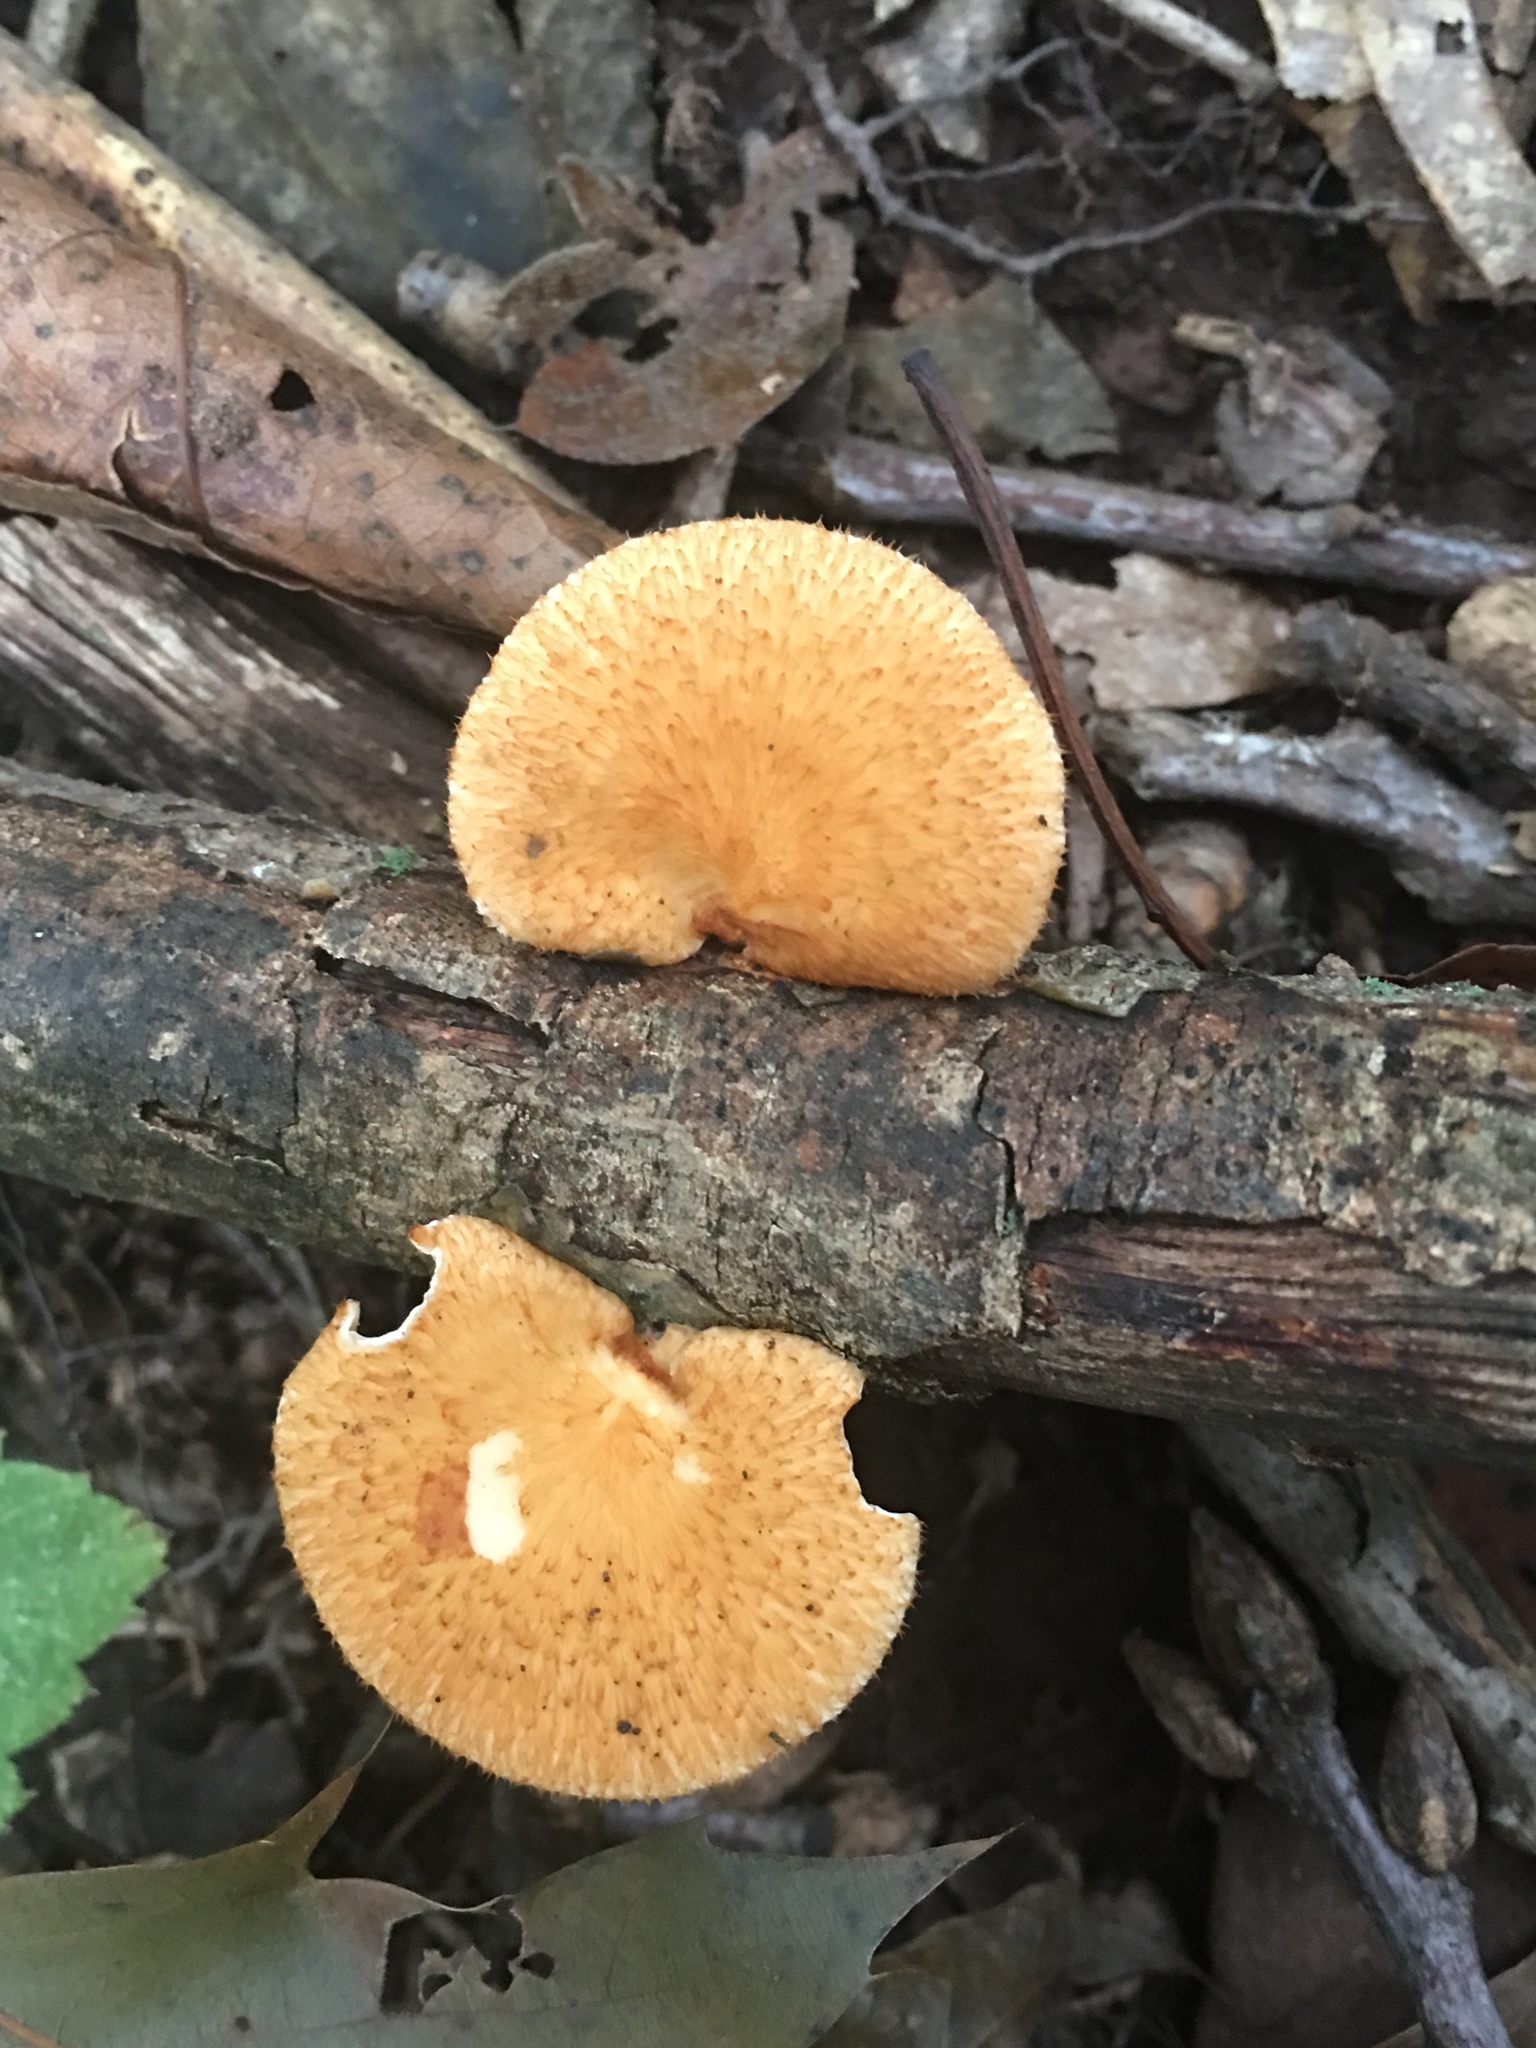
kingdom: Fungi
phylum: Basidiomycota
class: Agaricomycetes
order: Polyporales
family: Polyporaceae
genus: Neofavolus
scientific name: Neofavolus alveolaris
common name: Hexagonal-pored polypore
